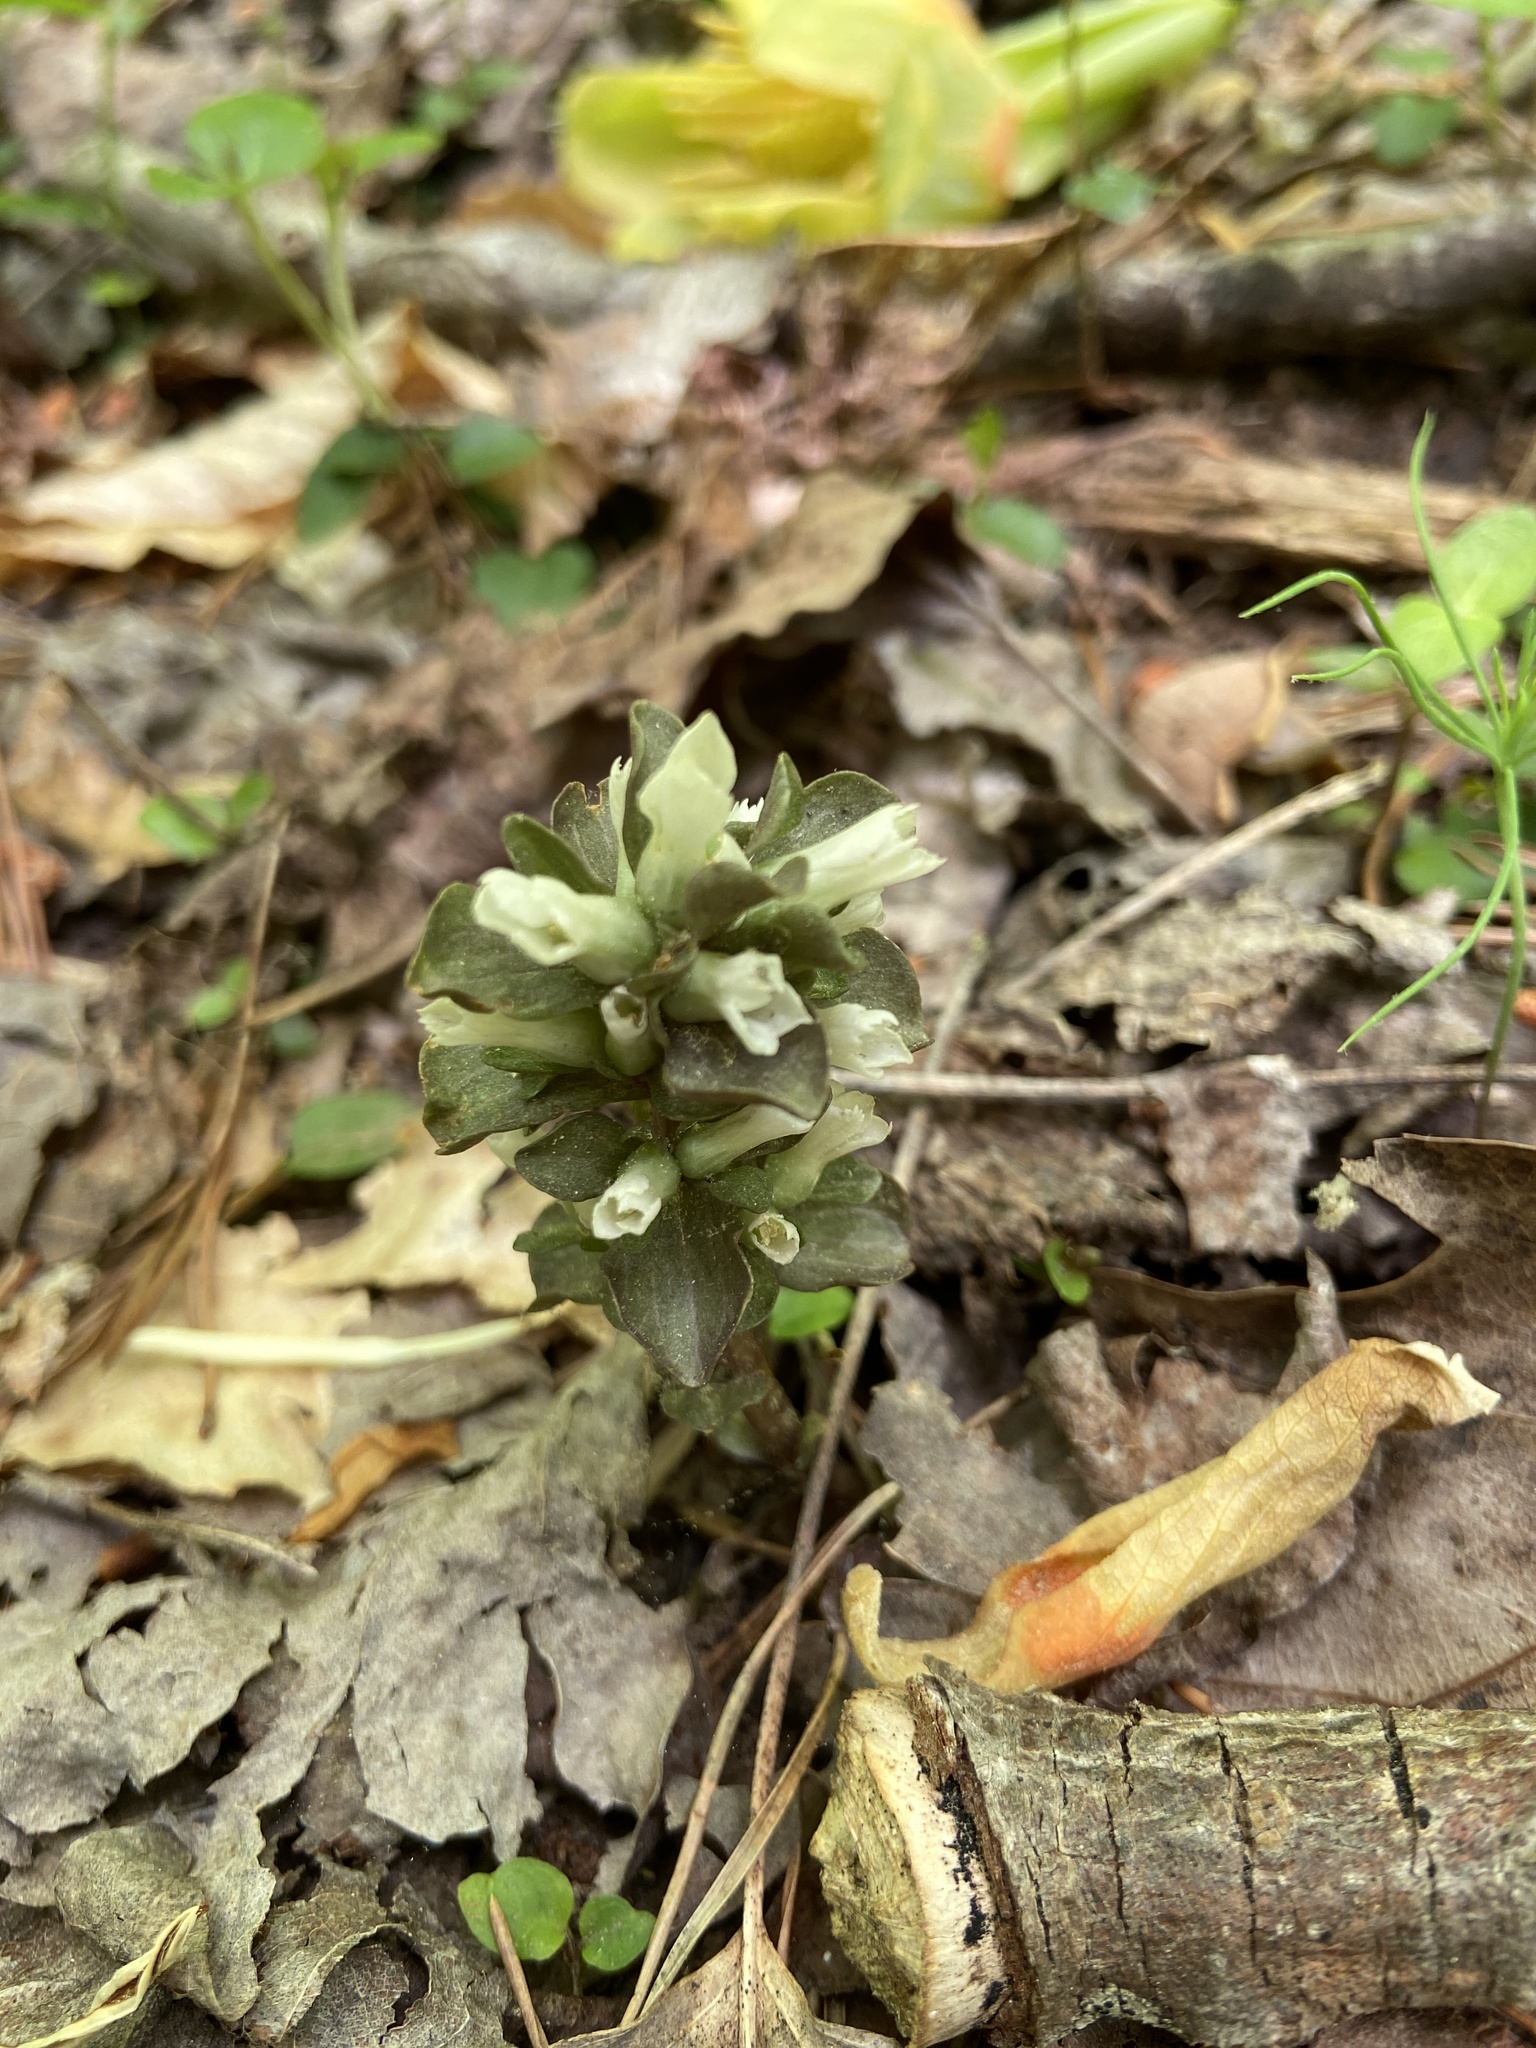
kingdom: Plantae
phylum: Tracheophyta
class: Magnoliopsida
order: Gentianales
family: Gentianaceae
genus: Obolaria
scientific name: Obolaria virginica
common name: Pennywort
